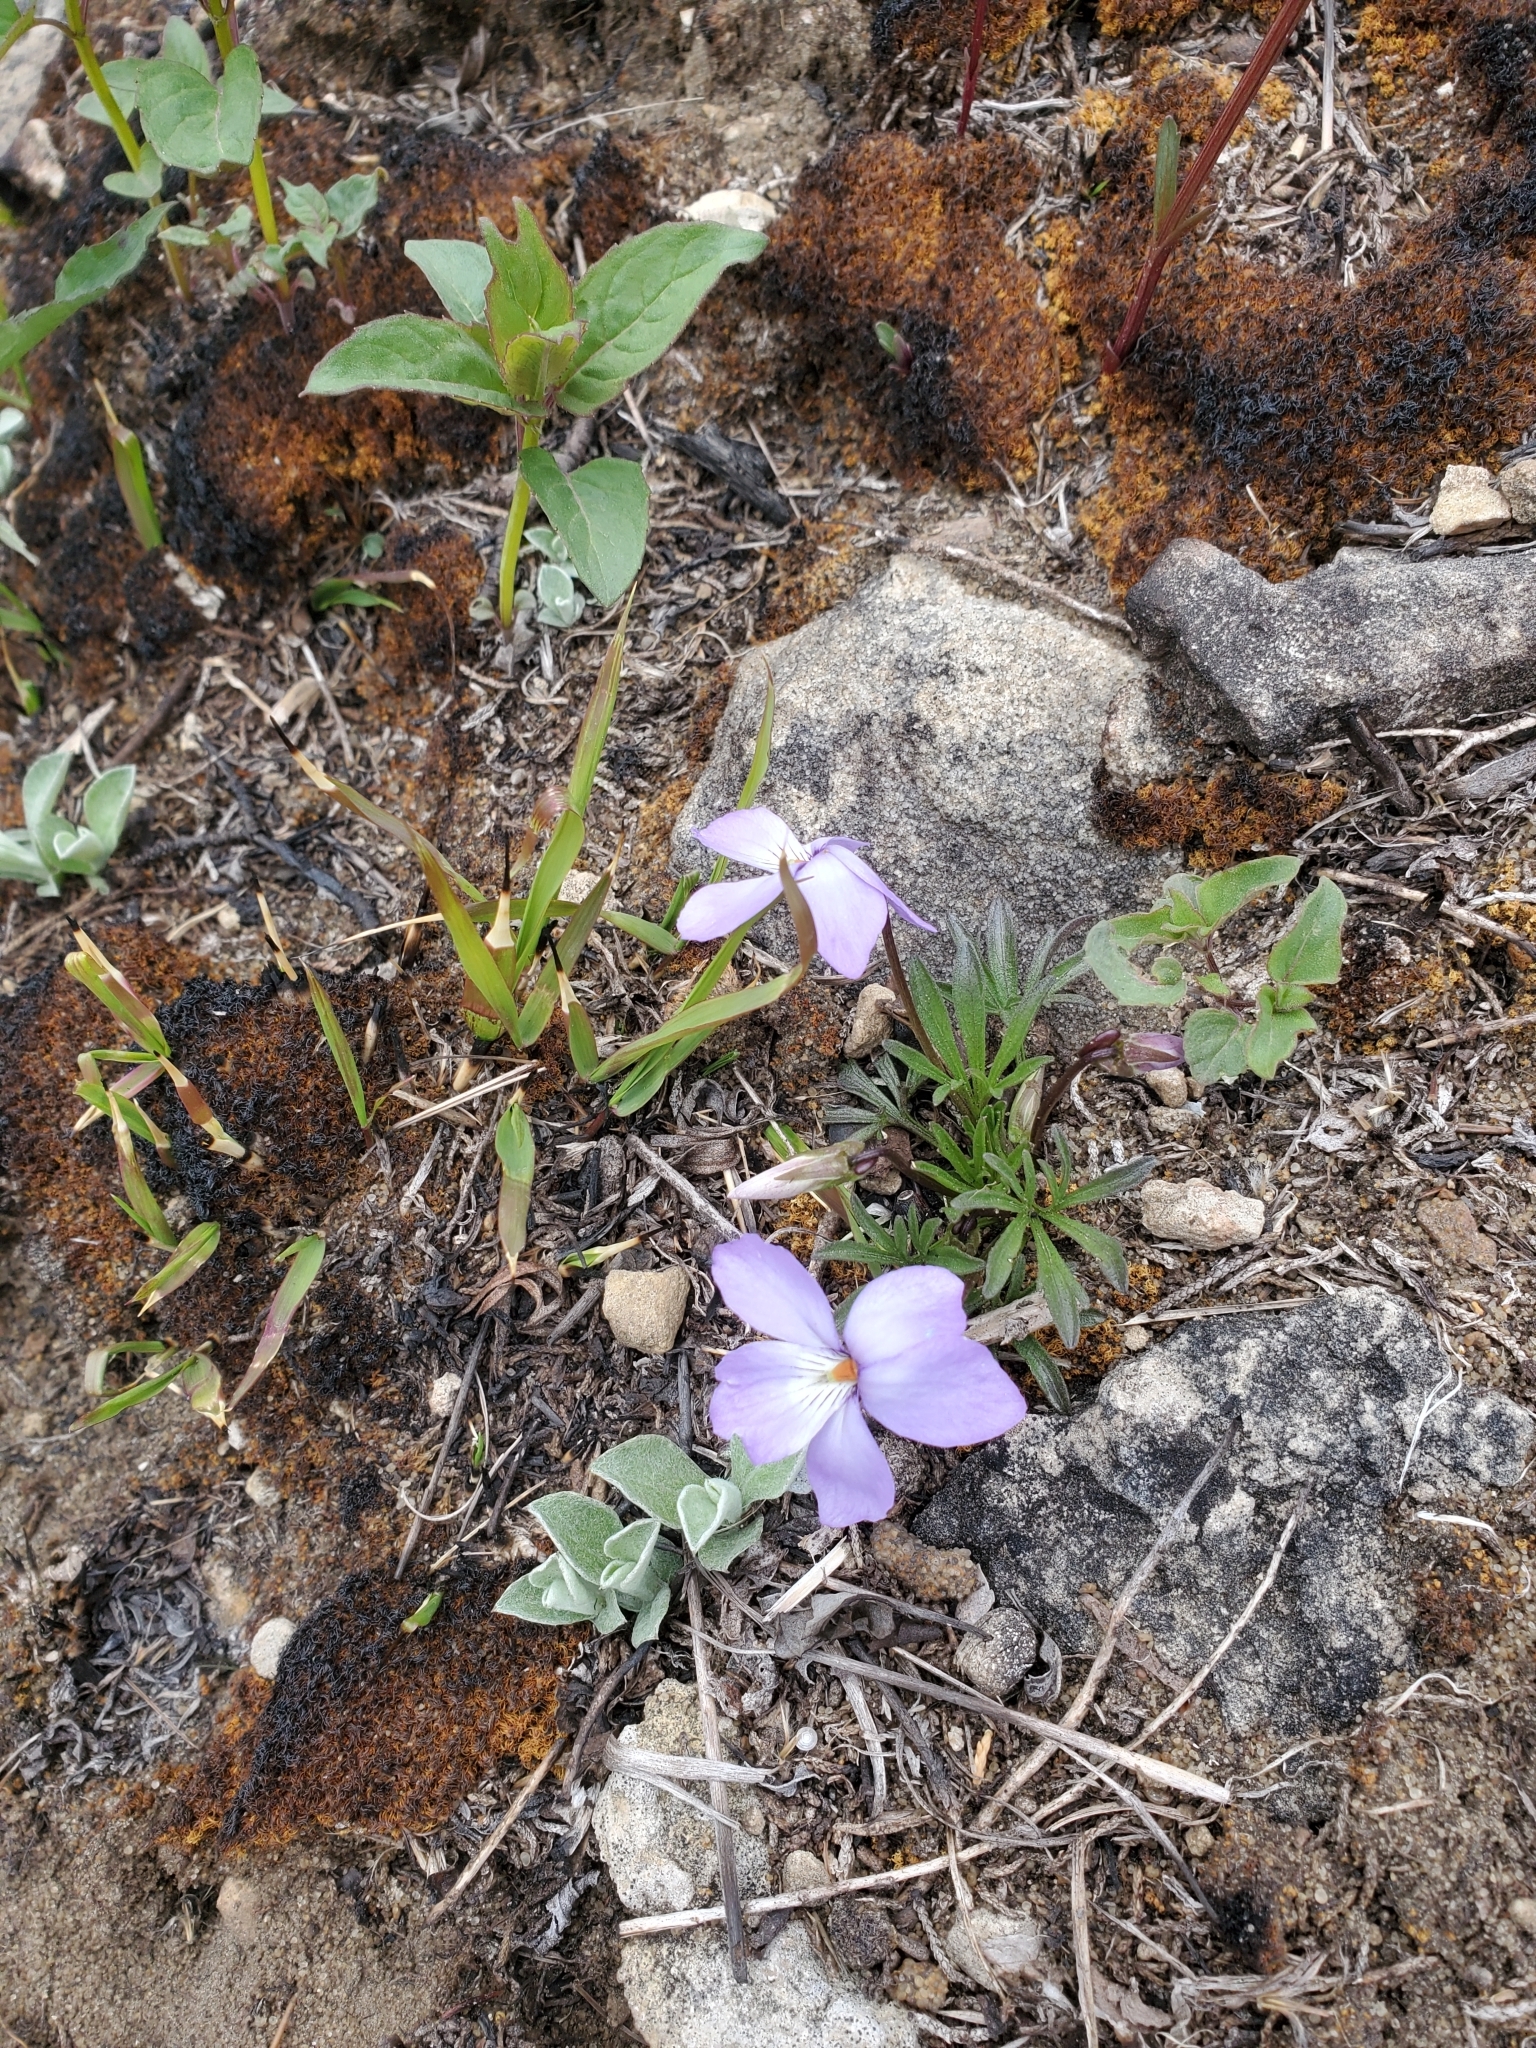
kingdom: Plantae
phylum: Tracheophyta
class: Magnoliopsida
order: Malpighiales
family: Violaceae
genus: Viola
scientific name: Viola pedata
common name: Pansy violet
